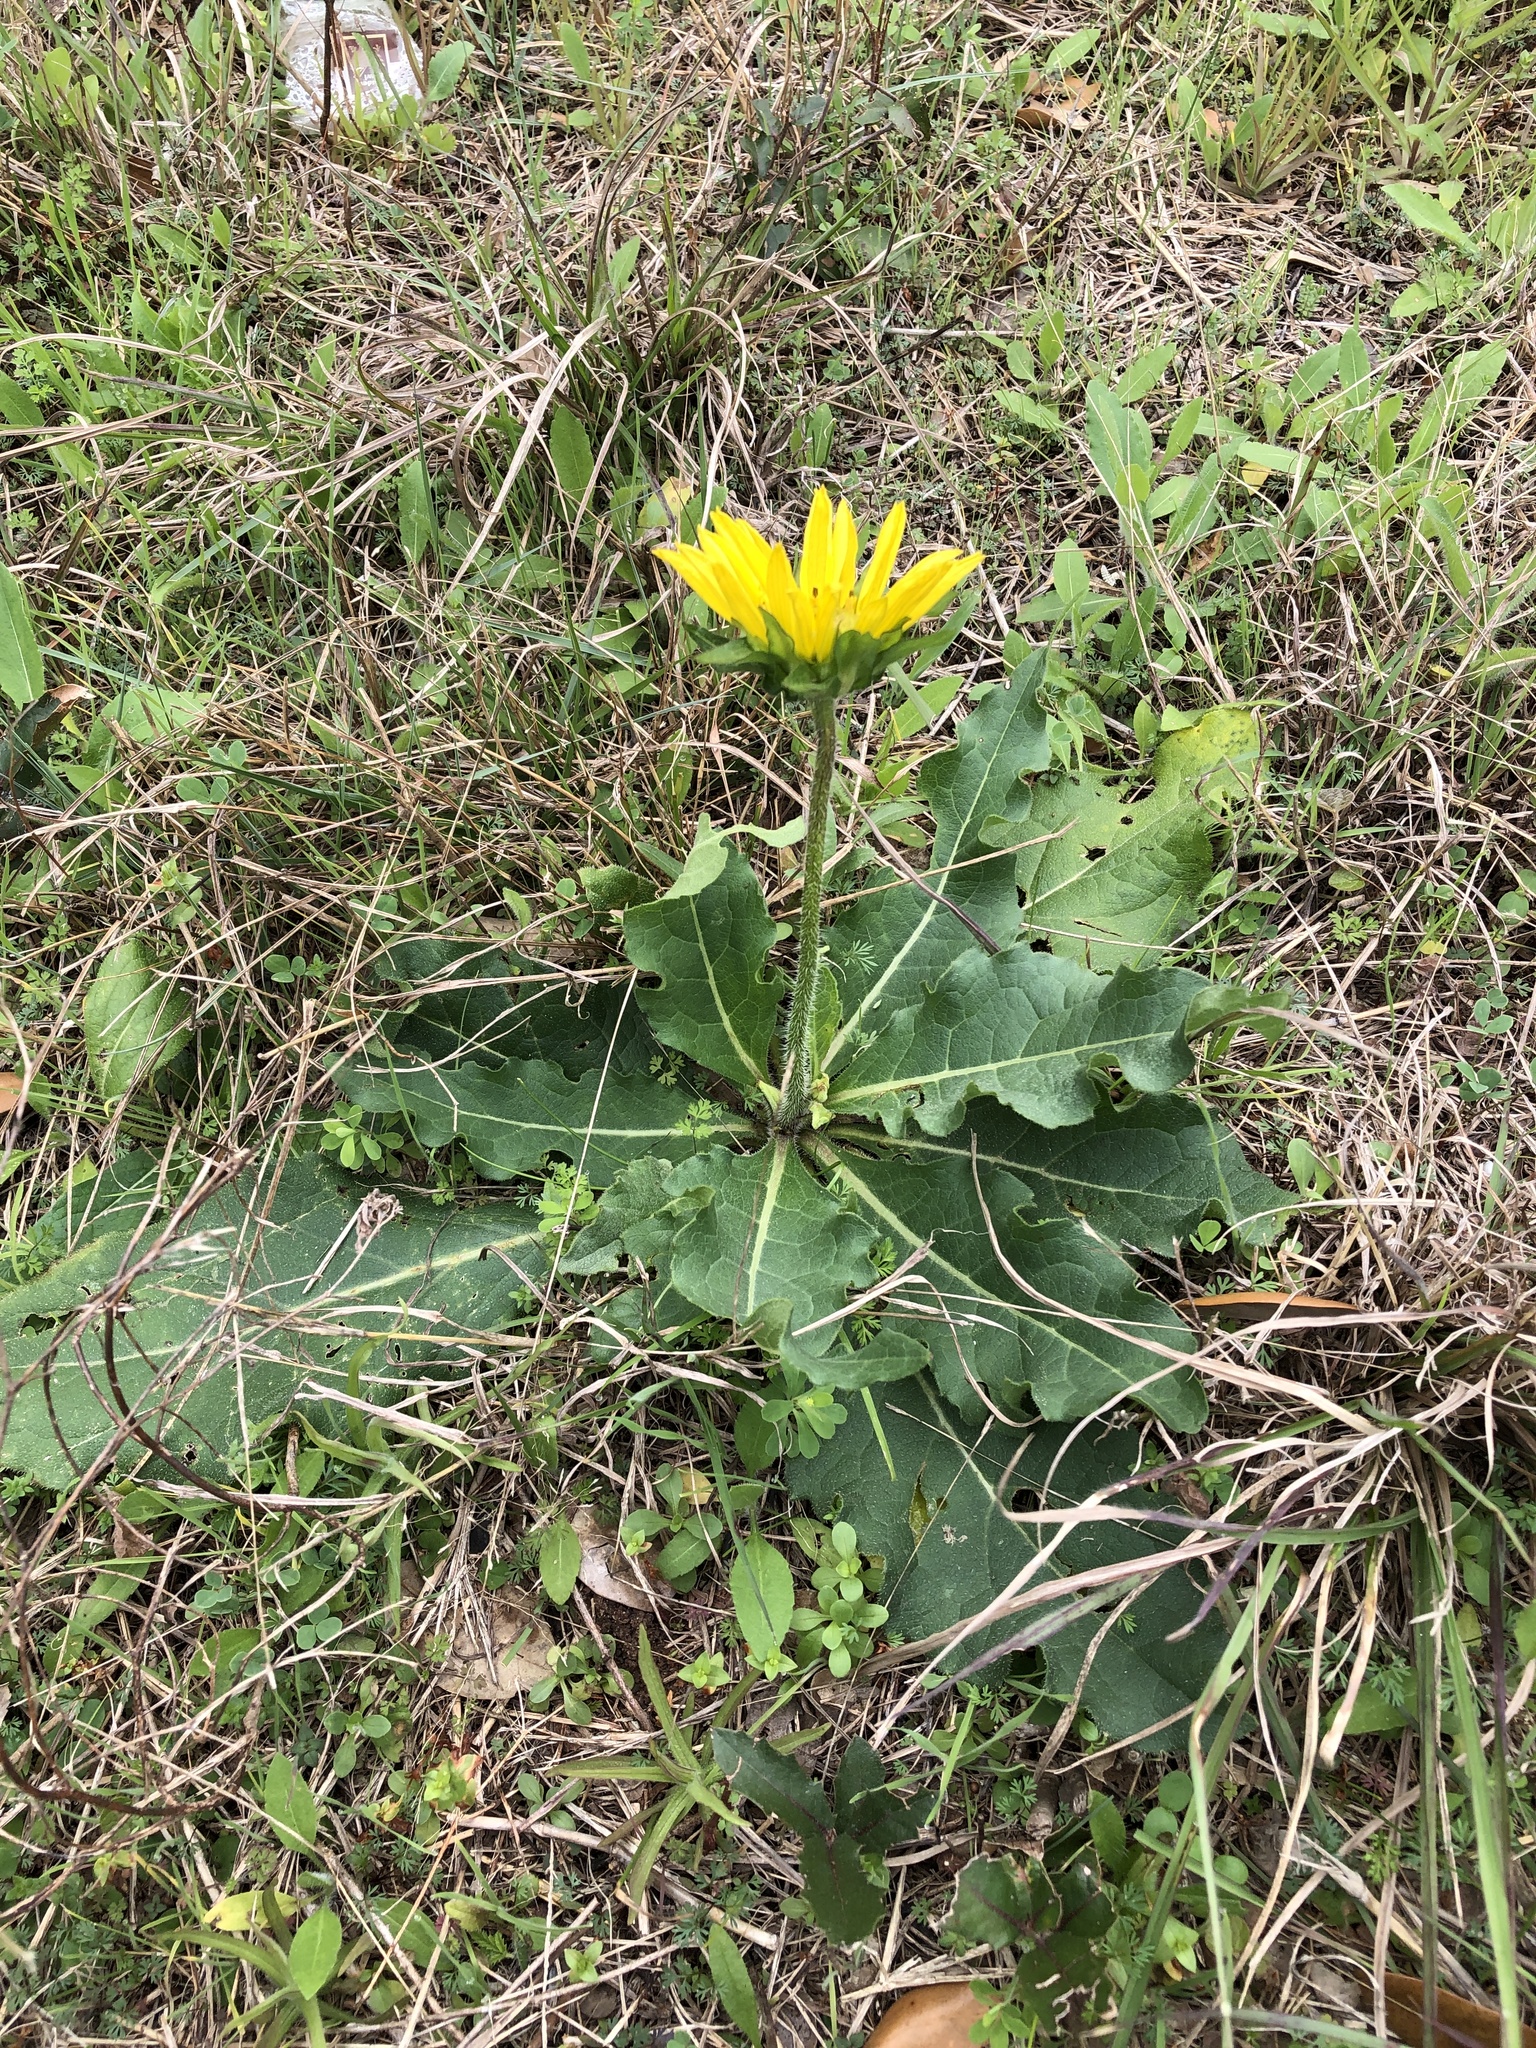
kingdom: Plantae
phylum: Tracheophyta
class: Magnoliopsida
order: Asterales
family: Asteraceae
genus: Silphium
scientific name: Silphium radula
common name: Roughleaf rosinweed
